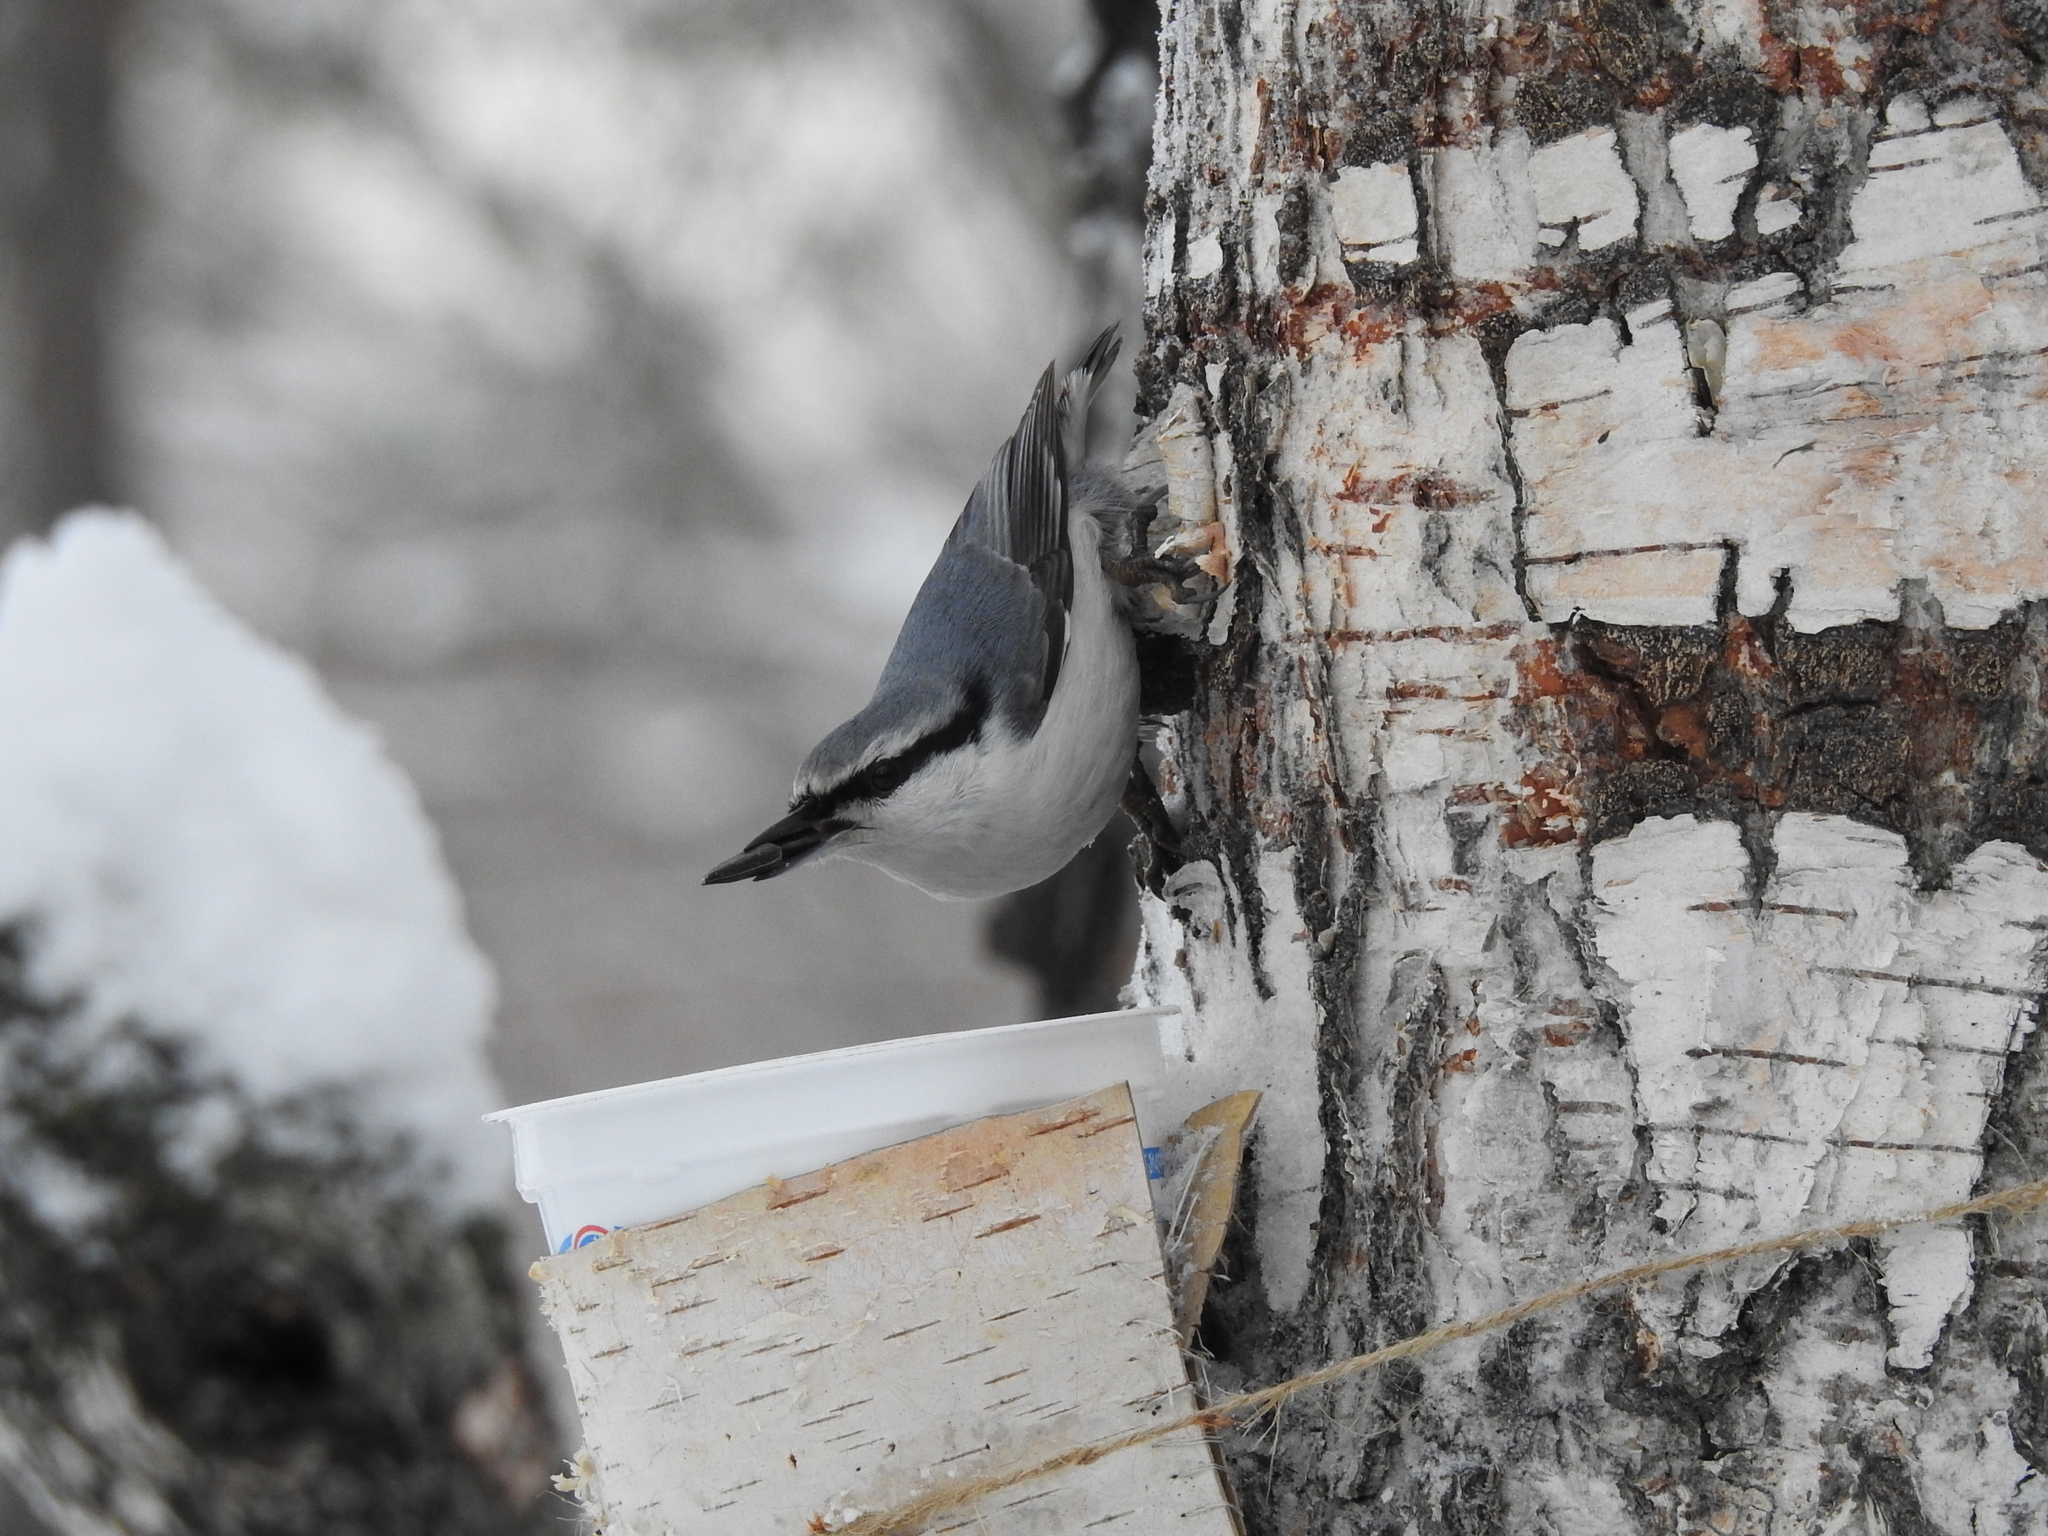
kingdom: Animalia
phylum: Chordata
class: Aves
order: Passeriformes
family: Sittidae
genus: Sitta
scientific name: Sitta europaea
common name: Eurasian nuthatch
